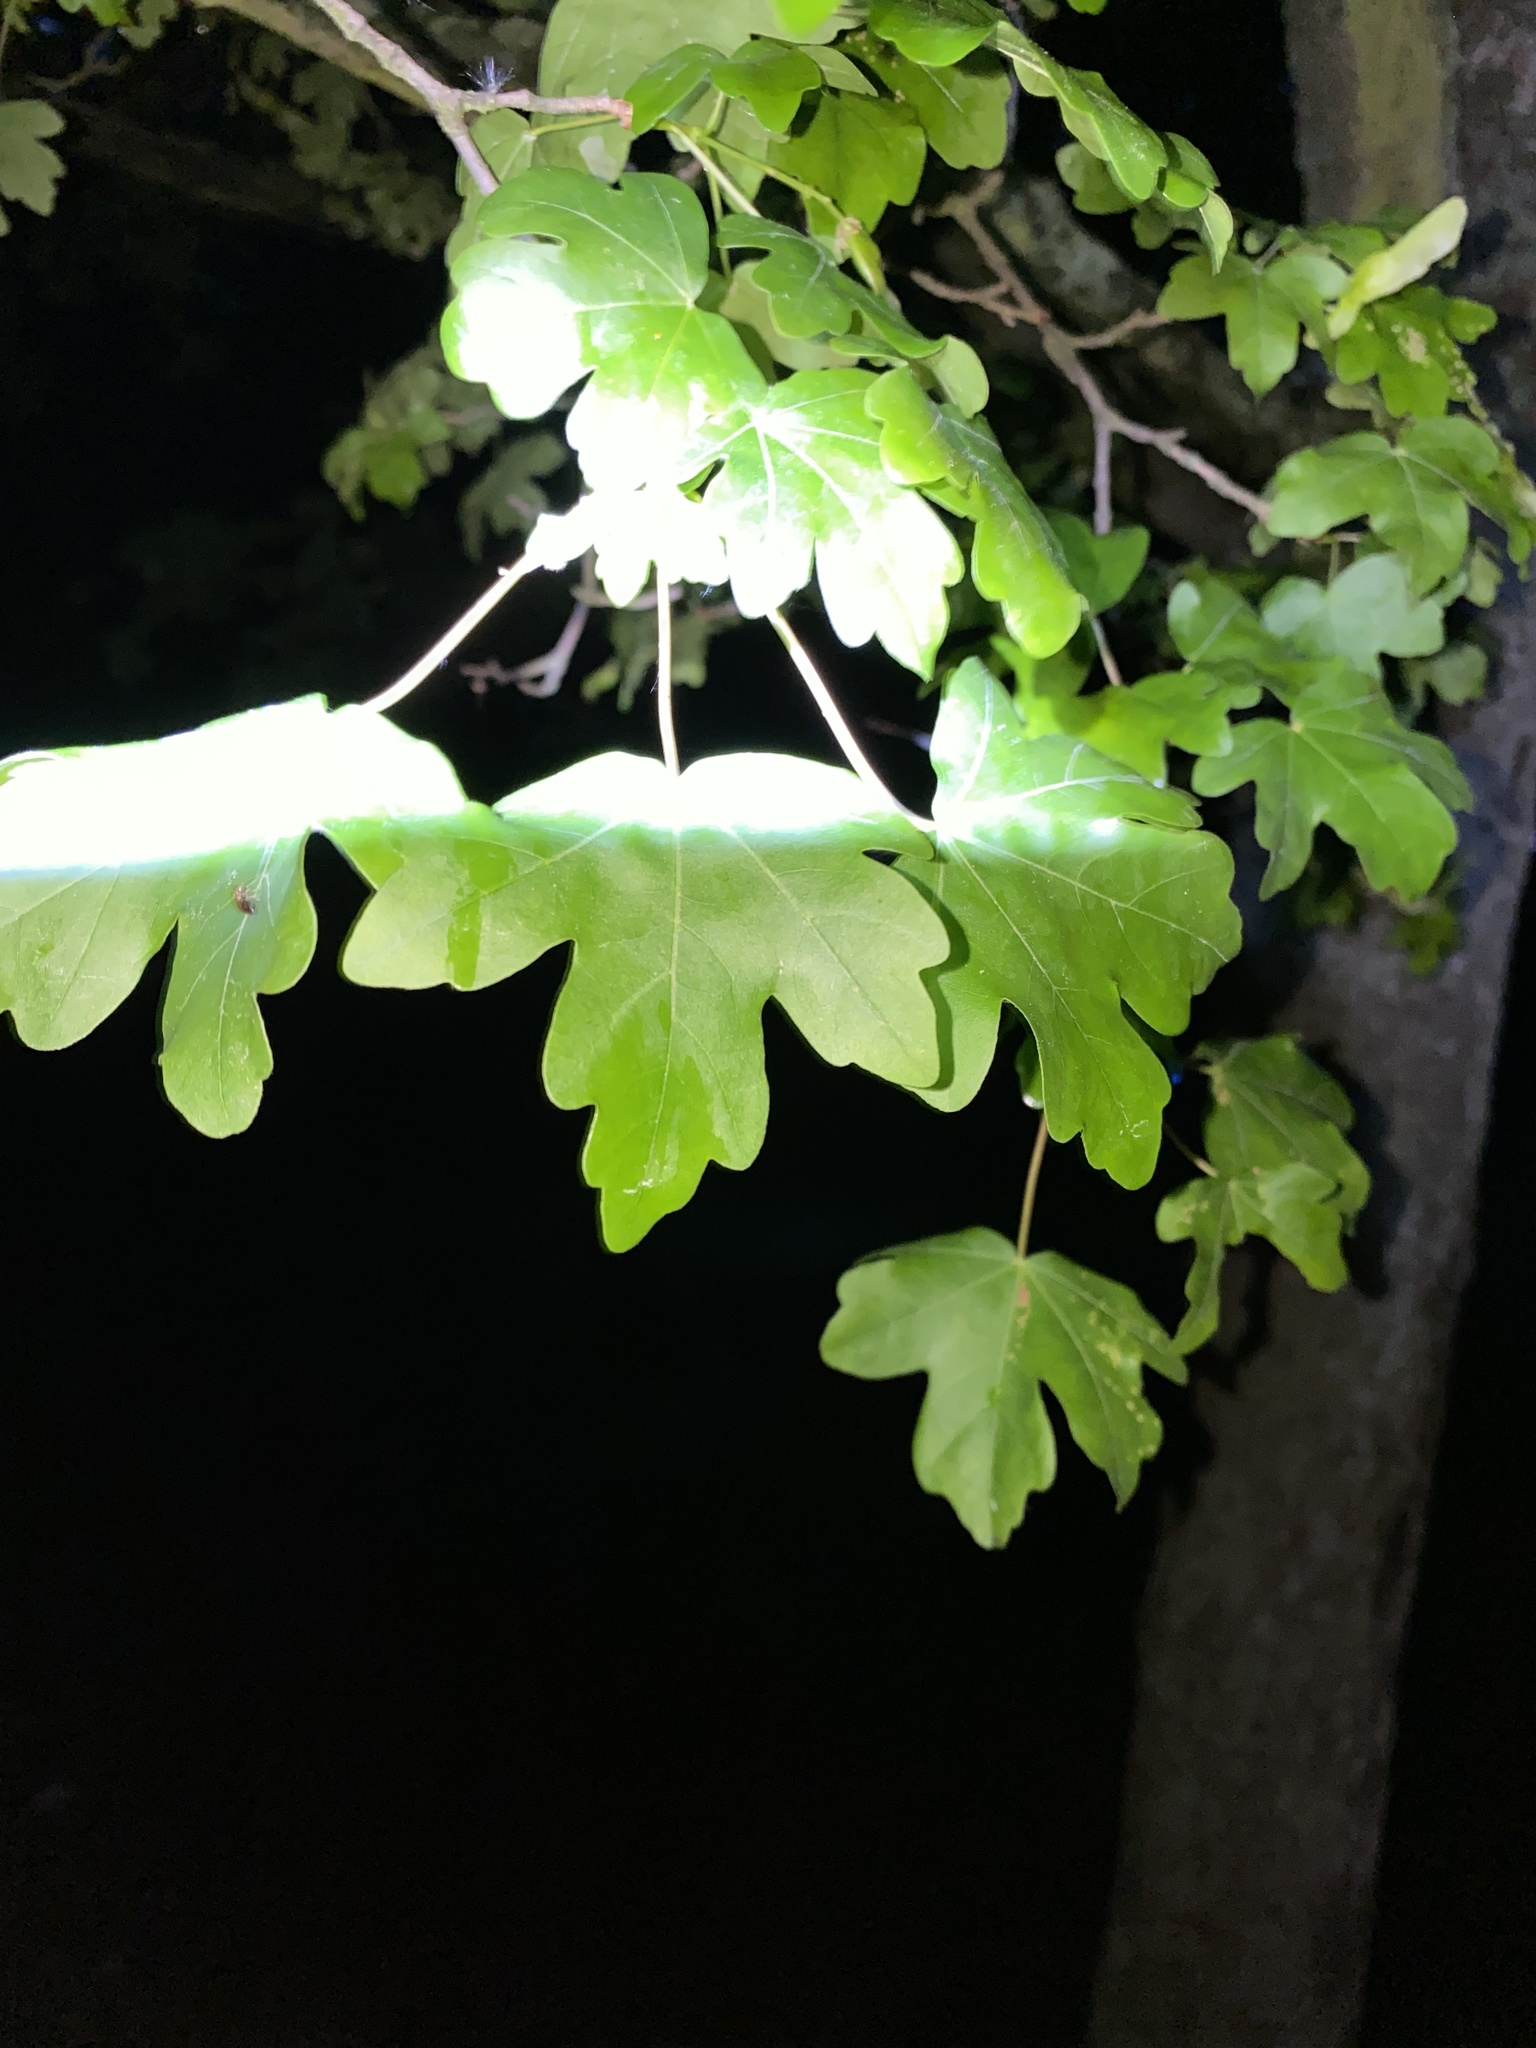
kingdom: Plantae
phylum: Tracheophyta
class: Magnoliopsida
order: Sapindales
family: Sapindaceae
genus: Acer
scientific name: Acer campestre
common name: Field maple
